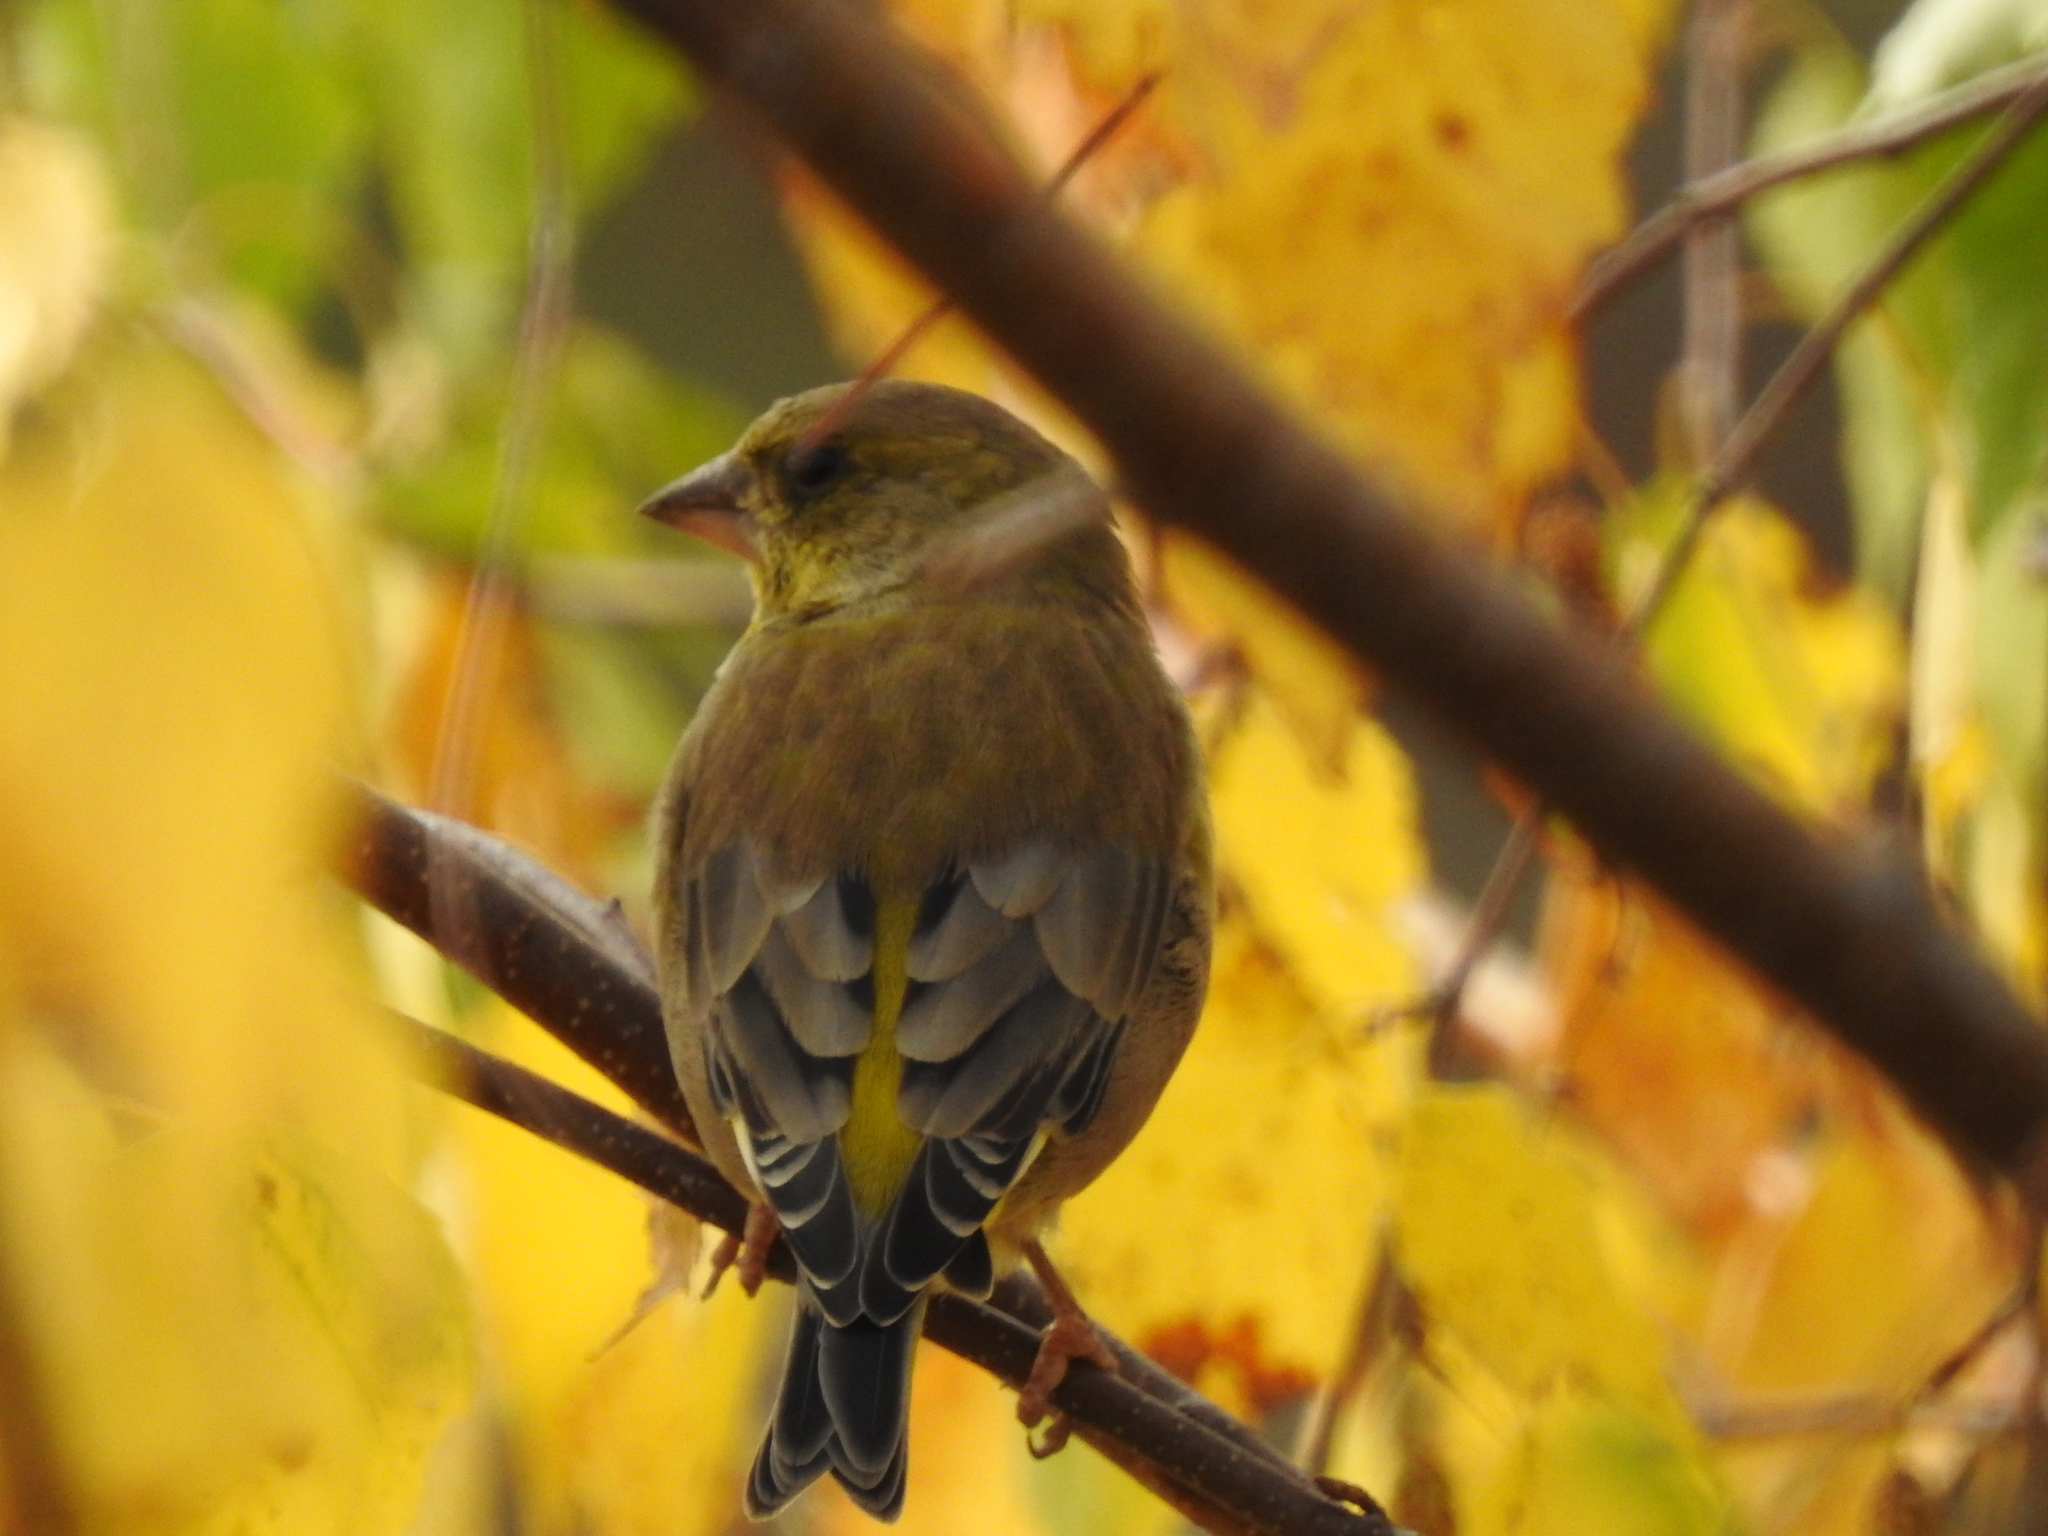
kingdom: Plantae
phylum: Tracheophyta
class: Liliopsida
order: Poales
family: Poaceae
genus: Chloris
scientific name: Chloris chloris
